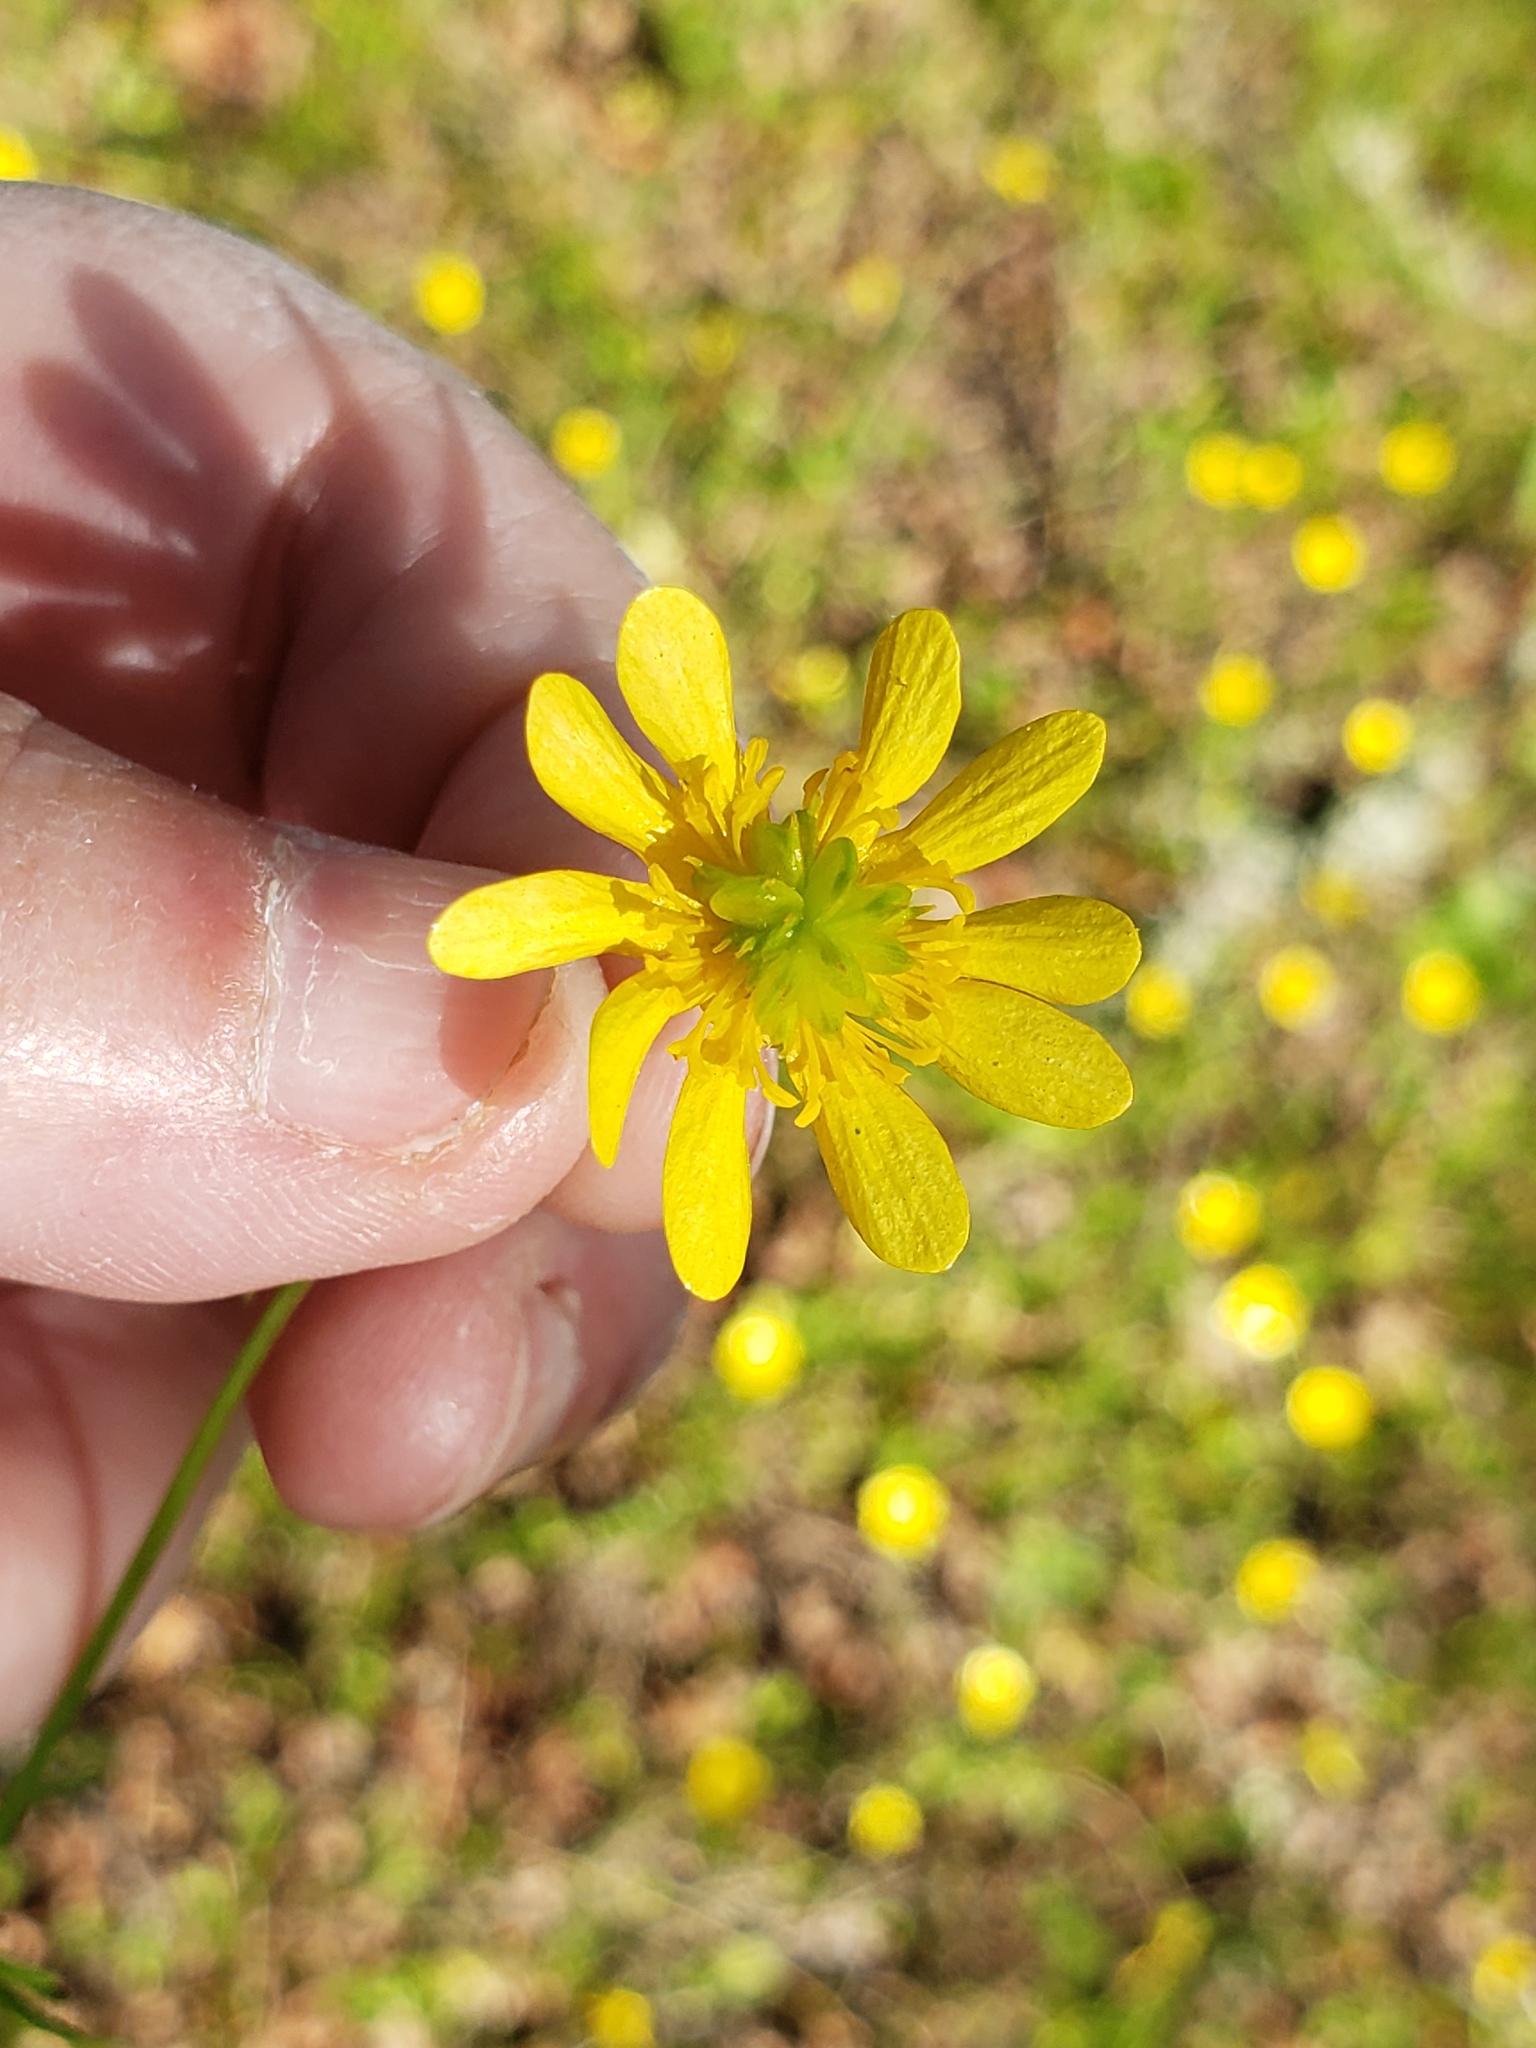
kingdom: Plantae
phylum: Tracheophyta
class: Magnoliopsida
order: Ranunculales
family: Ranunculaceae
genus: Ranunculus
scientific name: Ranunculus californicus
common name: California buttercup
